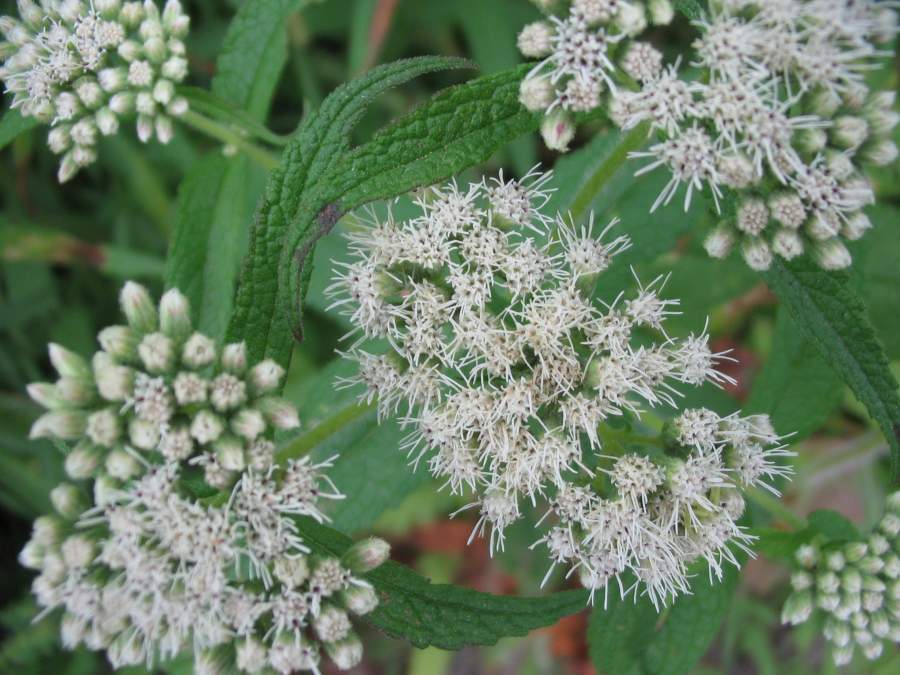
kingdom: Plantae
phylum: Tracheophyta
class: Magnoliopsida
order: Asterales
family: Asteraceae
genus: Eupatorium
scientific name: Eupatorium perfoliatum
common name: Boneset
